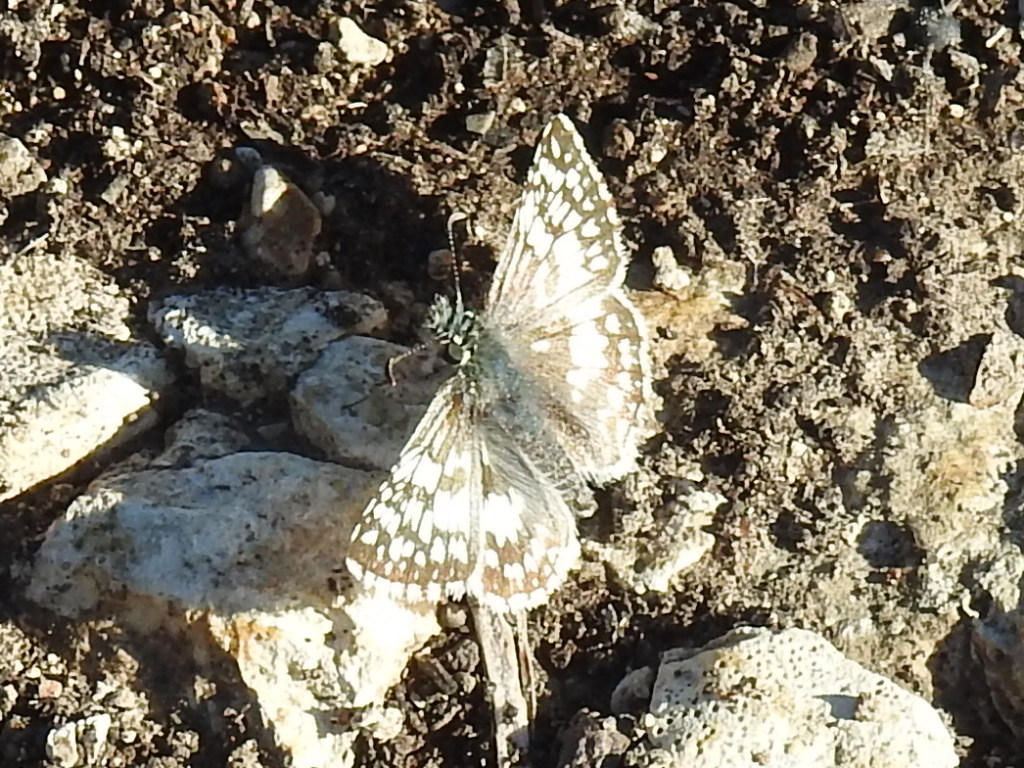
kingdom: Animalia
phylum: Arthropoda
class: Insecta
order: Lepidoptera
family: Hesperiidae
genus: Burnsius
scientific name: Burnsius
